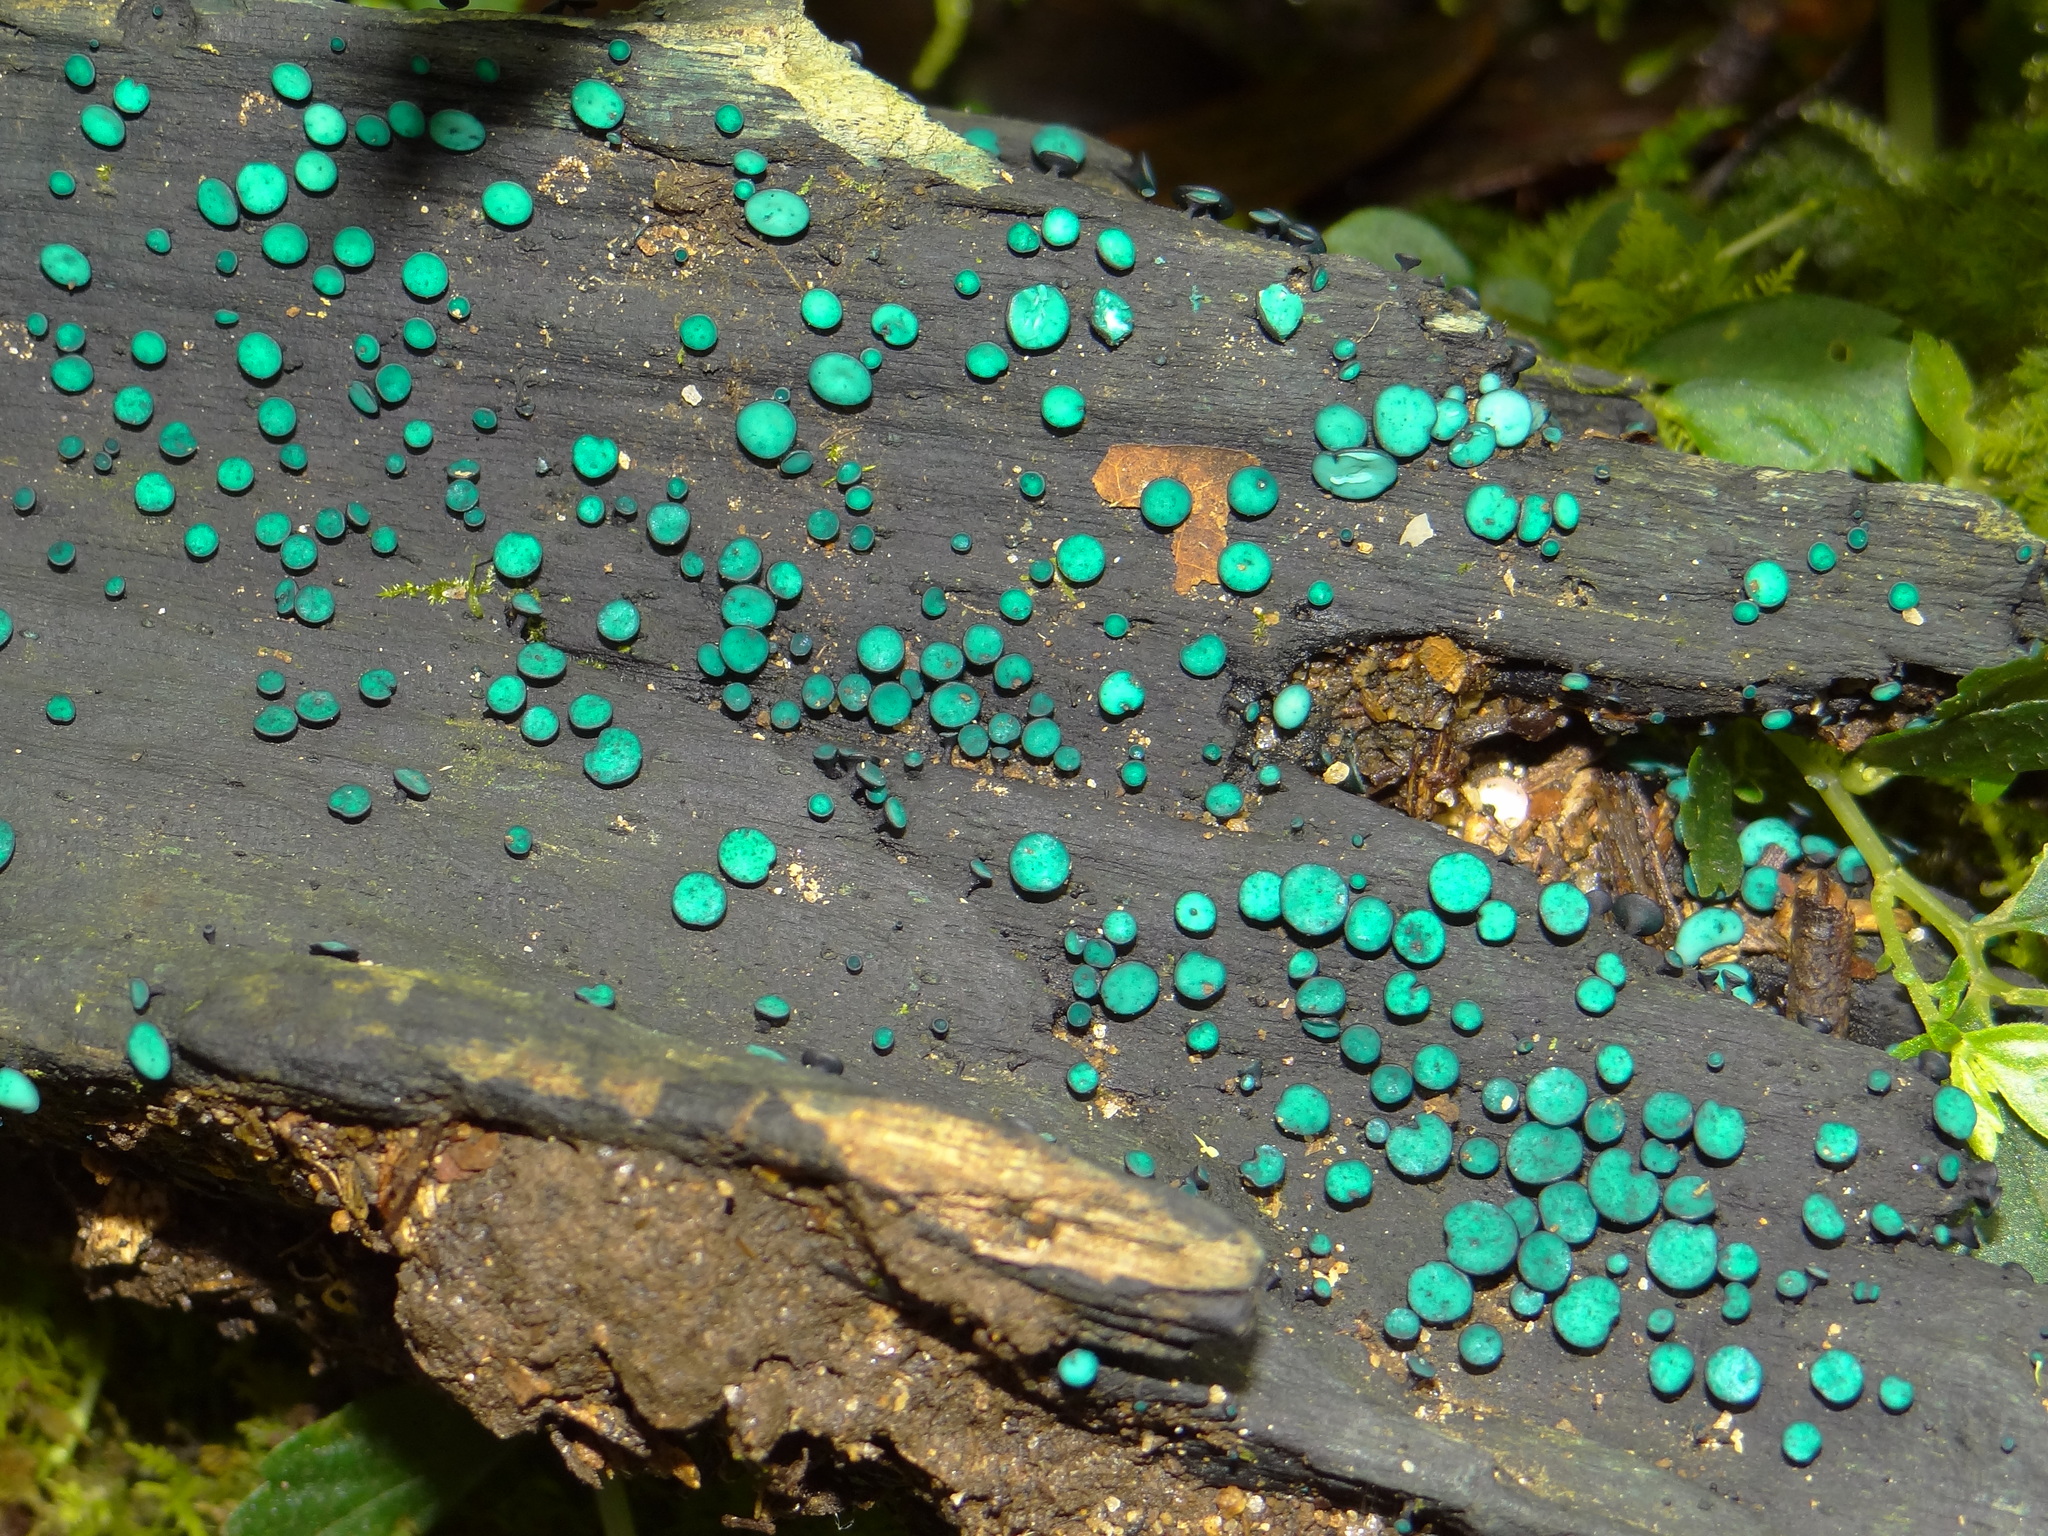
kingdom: Fungi
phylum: Ascomycota
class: Leotiomycetes
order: Helotiales
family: Chlorociboriaceae
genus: Chlorociboria
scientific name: Chlorociboria
